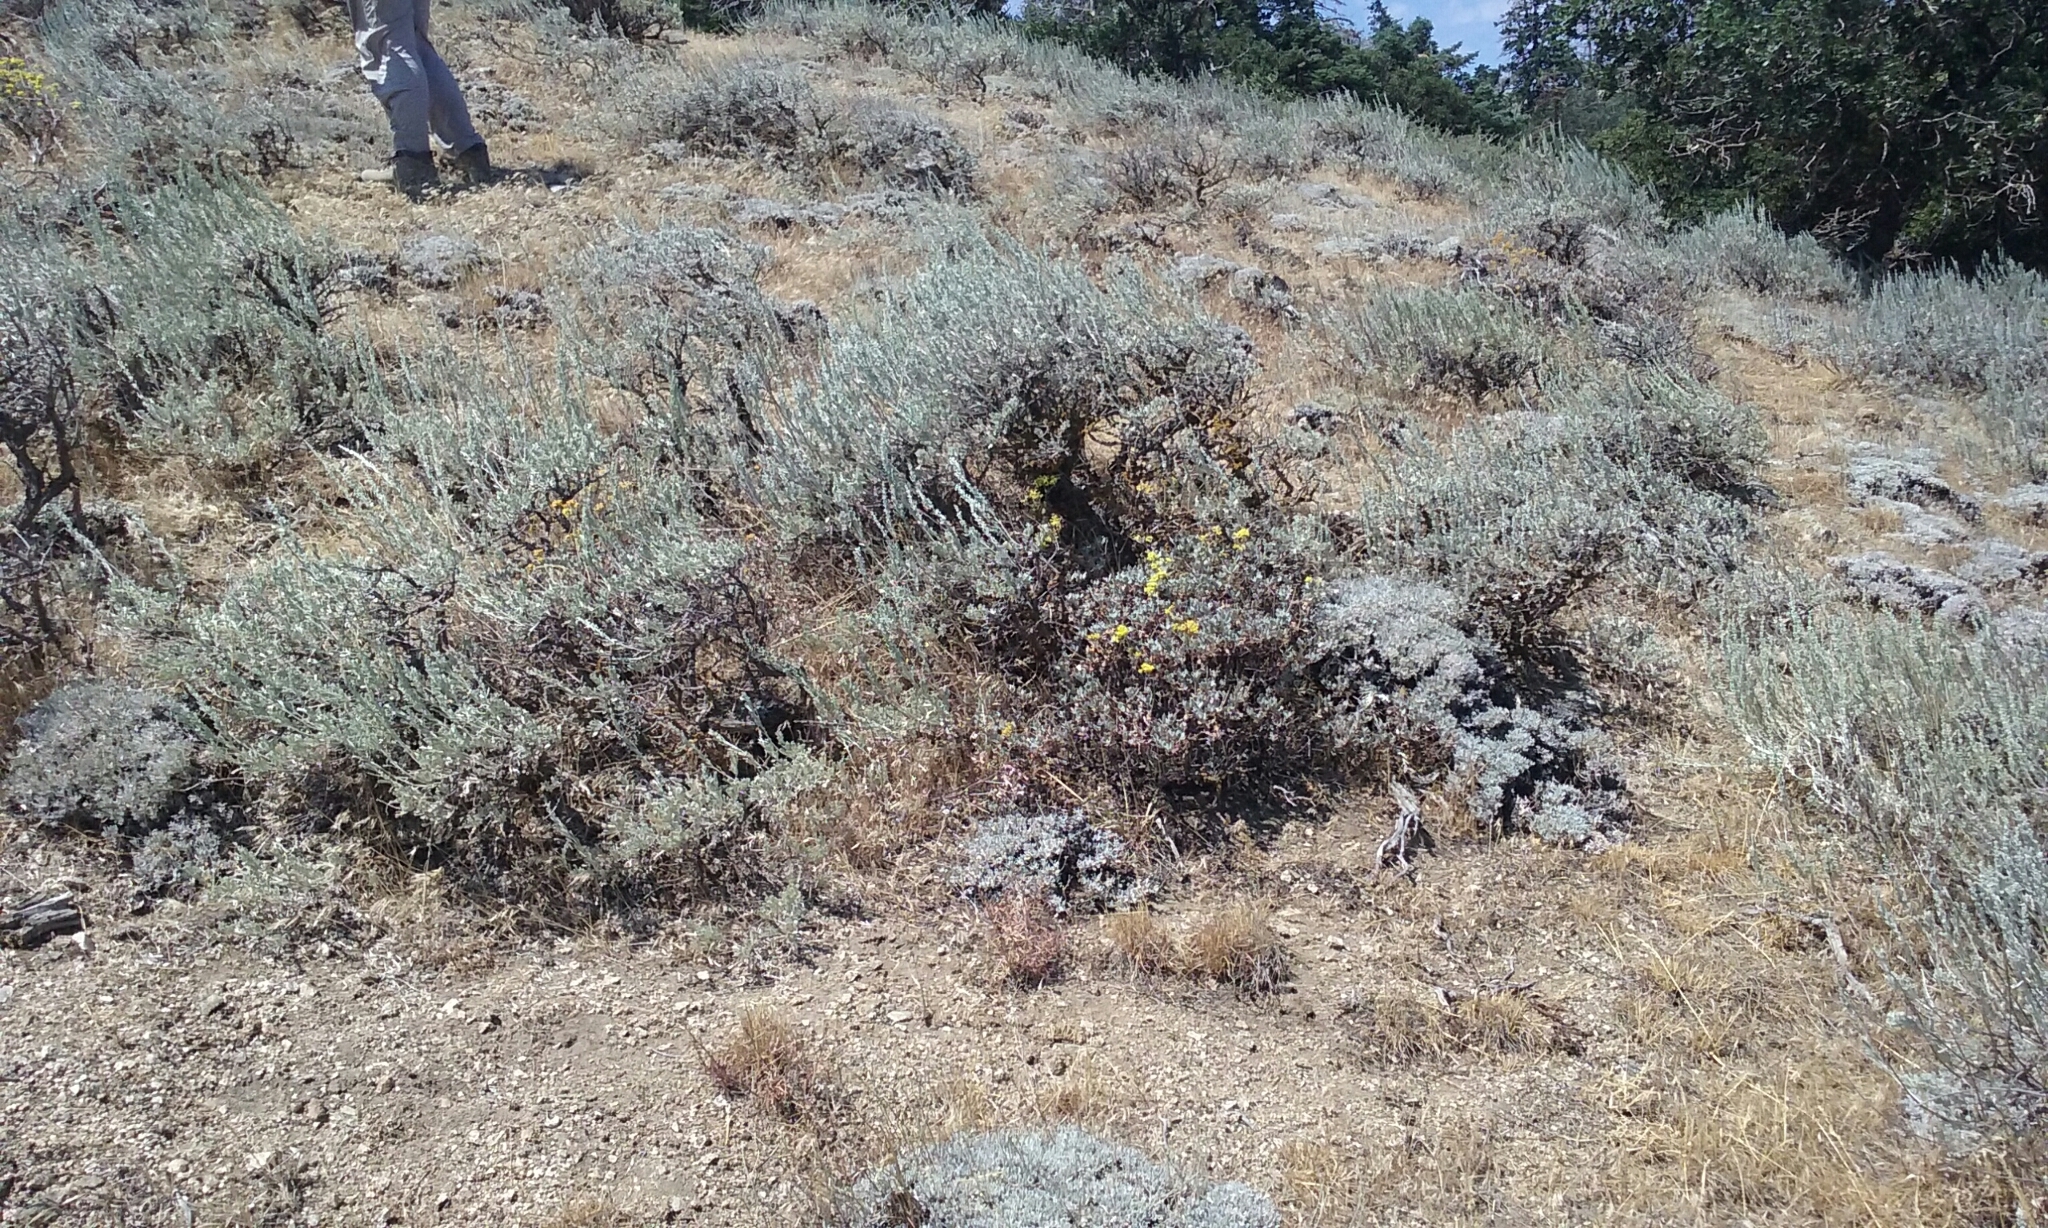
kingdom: Plantae
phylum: Tracheophyta
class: Magnoliopsida
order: Caryophyllales
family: Polygonaceae
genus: Eriogonum
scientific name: Eriogonum umbellatum
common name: Sulfur-buckwheat
